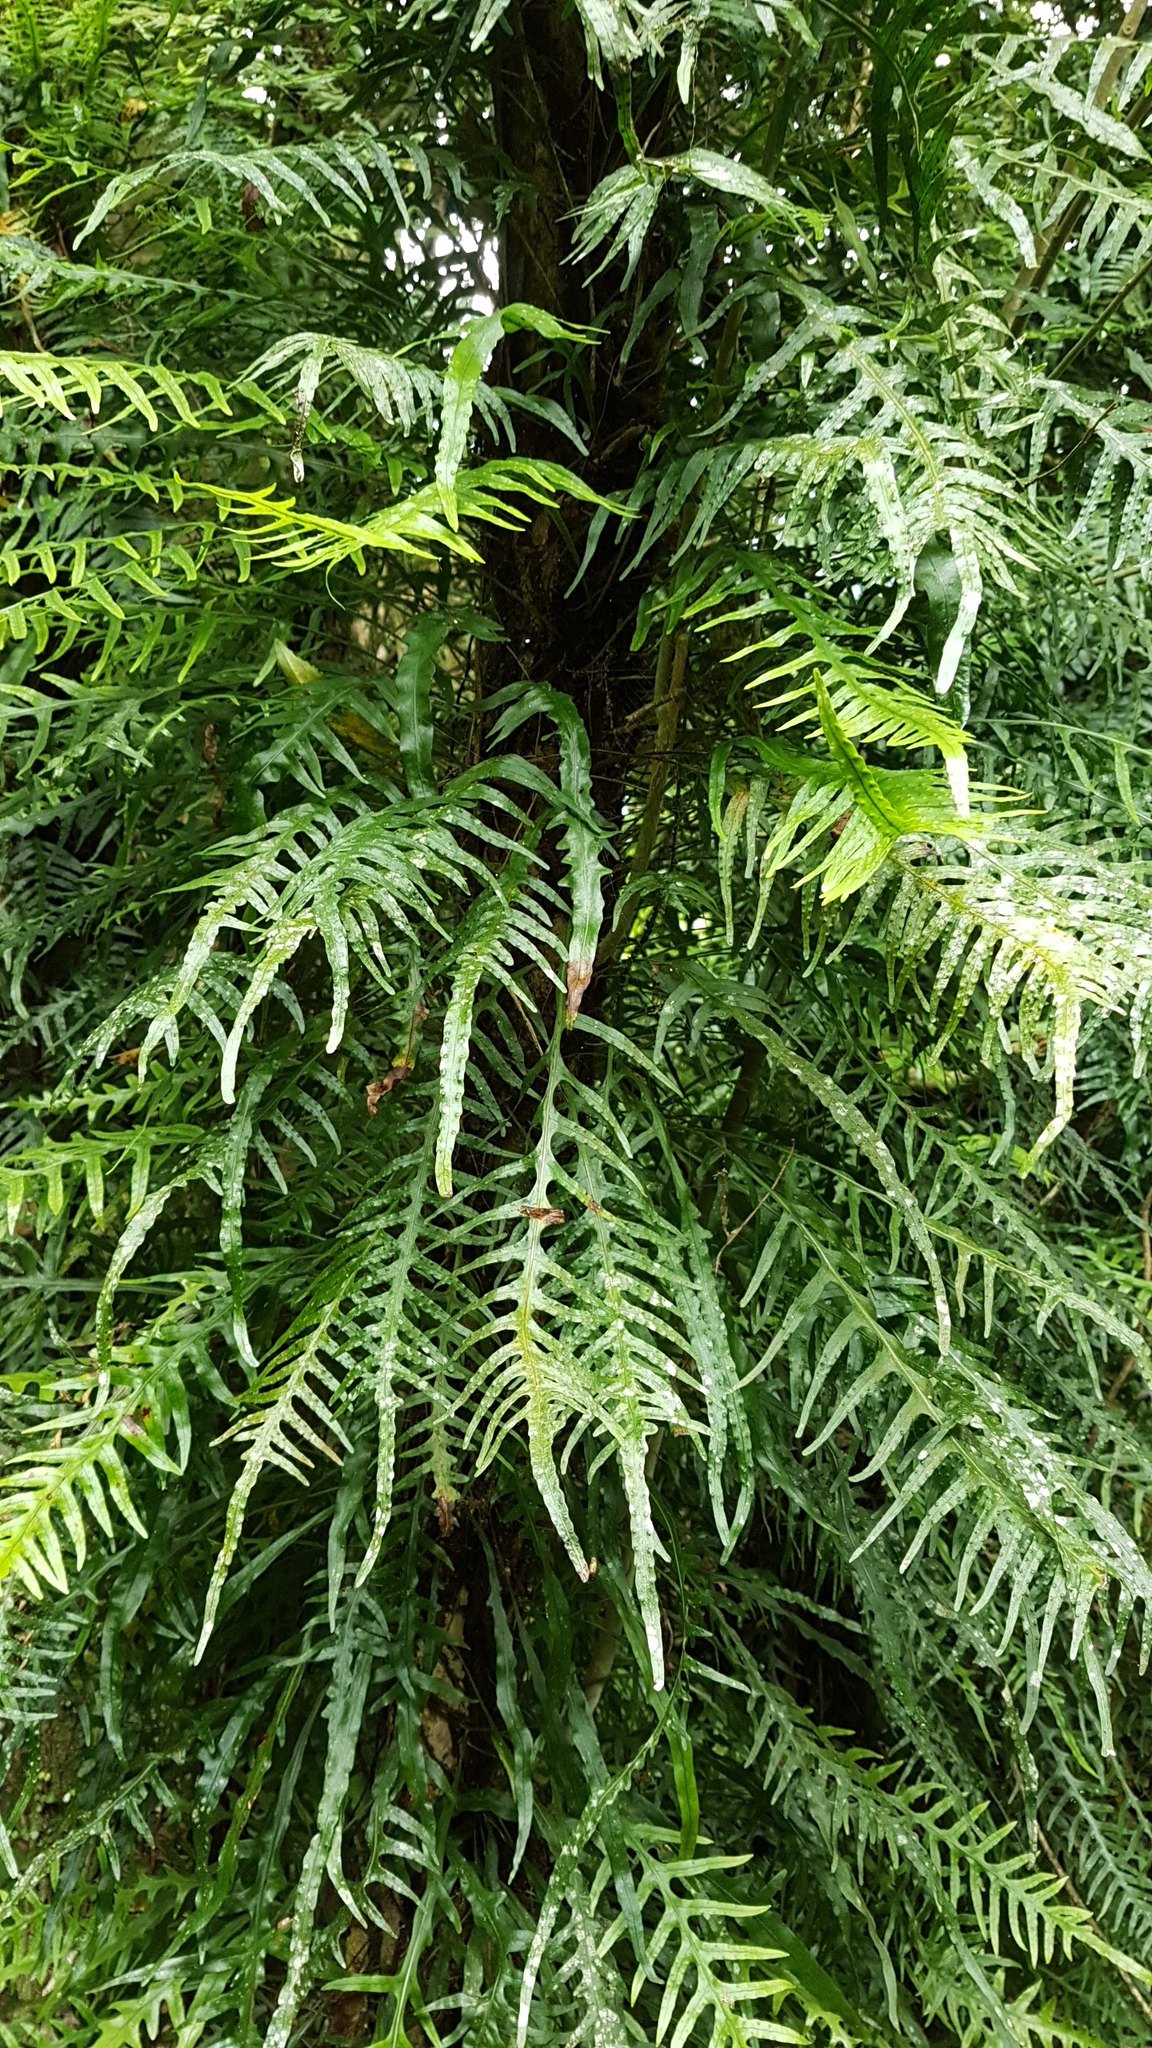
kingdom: Plantae
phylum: Tracheophyta
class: Polypodiopsida
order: Polypodiales
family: Polypodiaceae
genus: Lecanopteris
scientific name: Lecanopteris scandens
